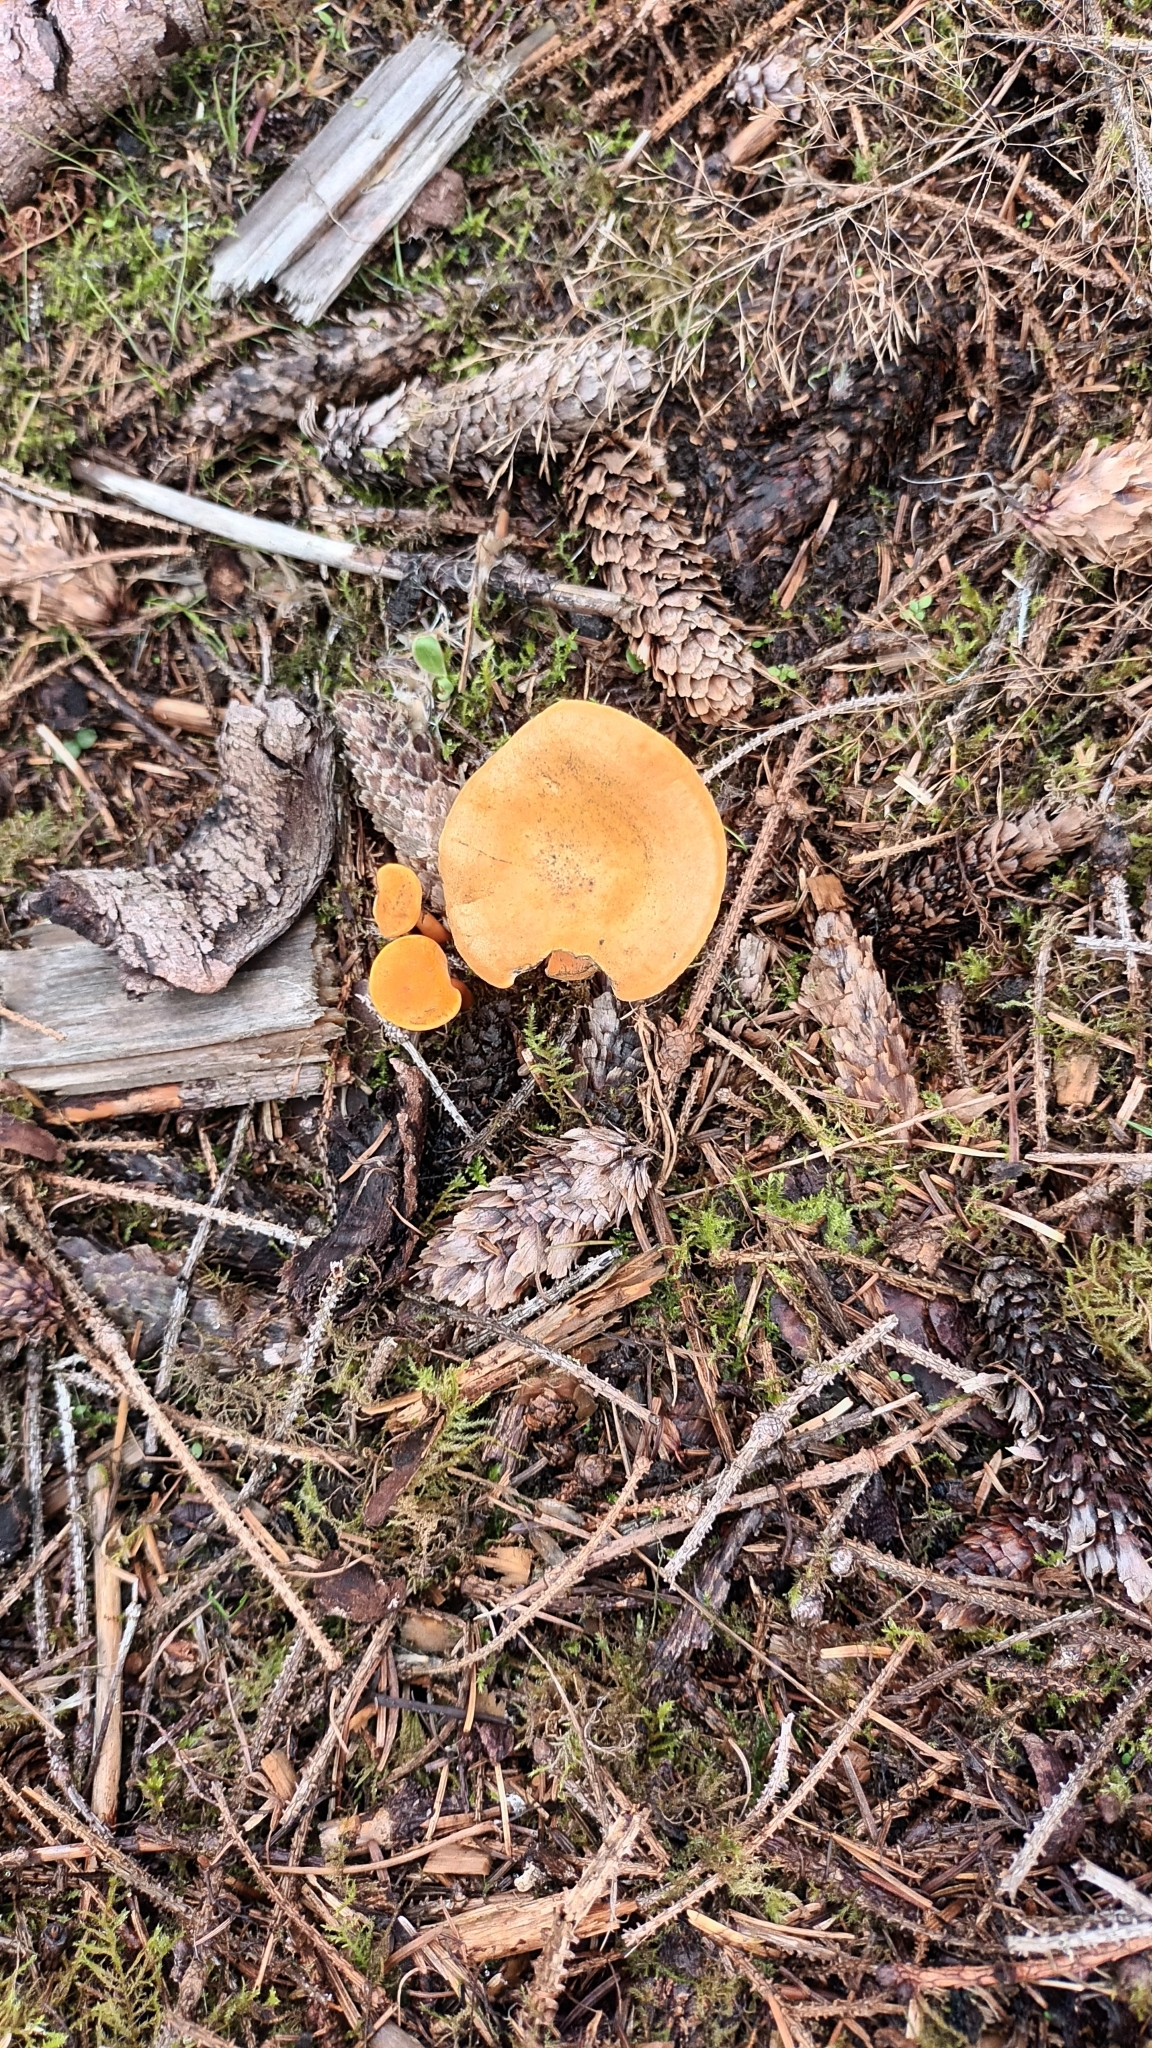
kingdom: Fungi
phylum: Basidiomycota
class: Agaricomycetes
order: Boletales
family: Hygrophoropsidaceae
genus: Hygrophoropsis
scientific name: Hygrophoropsis aurantiaca
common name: False chanterelle
